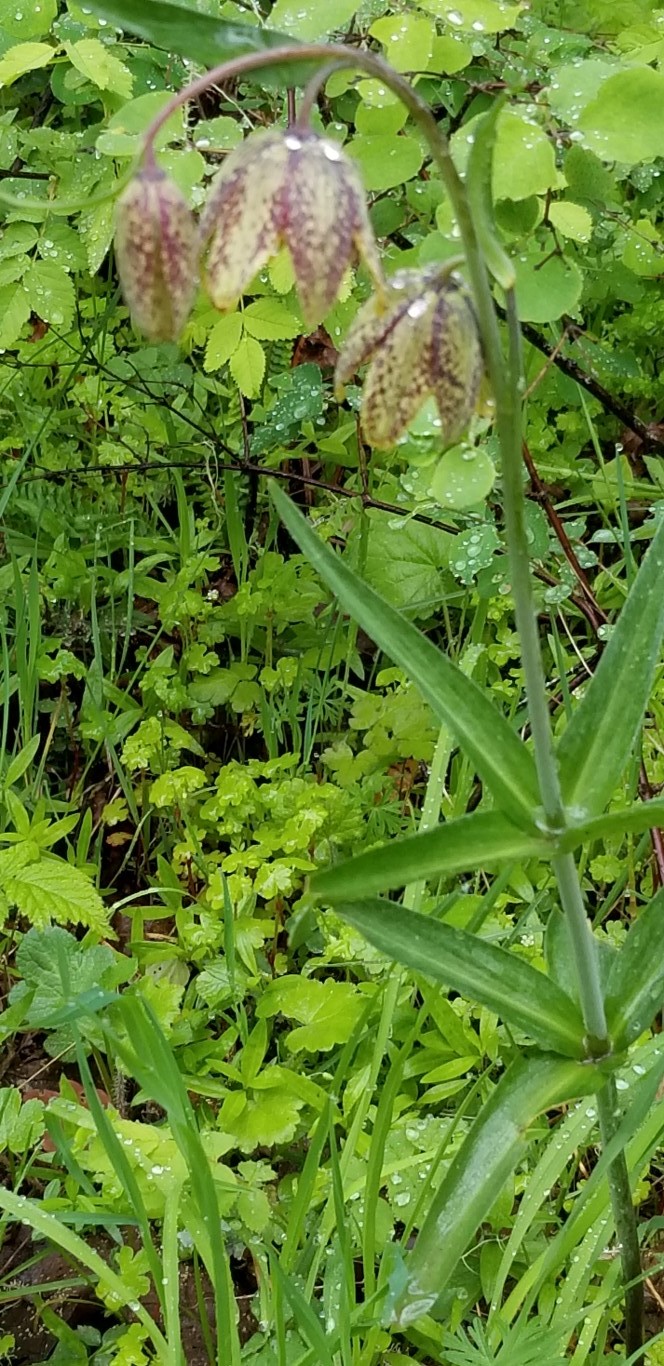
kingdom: Plantae
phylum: Tracheophyta
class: Liliopsida
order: Liliales
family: Liliaceae
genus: Fritillaria
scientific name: Fritillaria affinis
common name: Ojai fritillary
